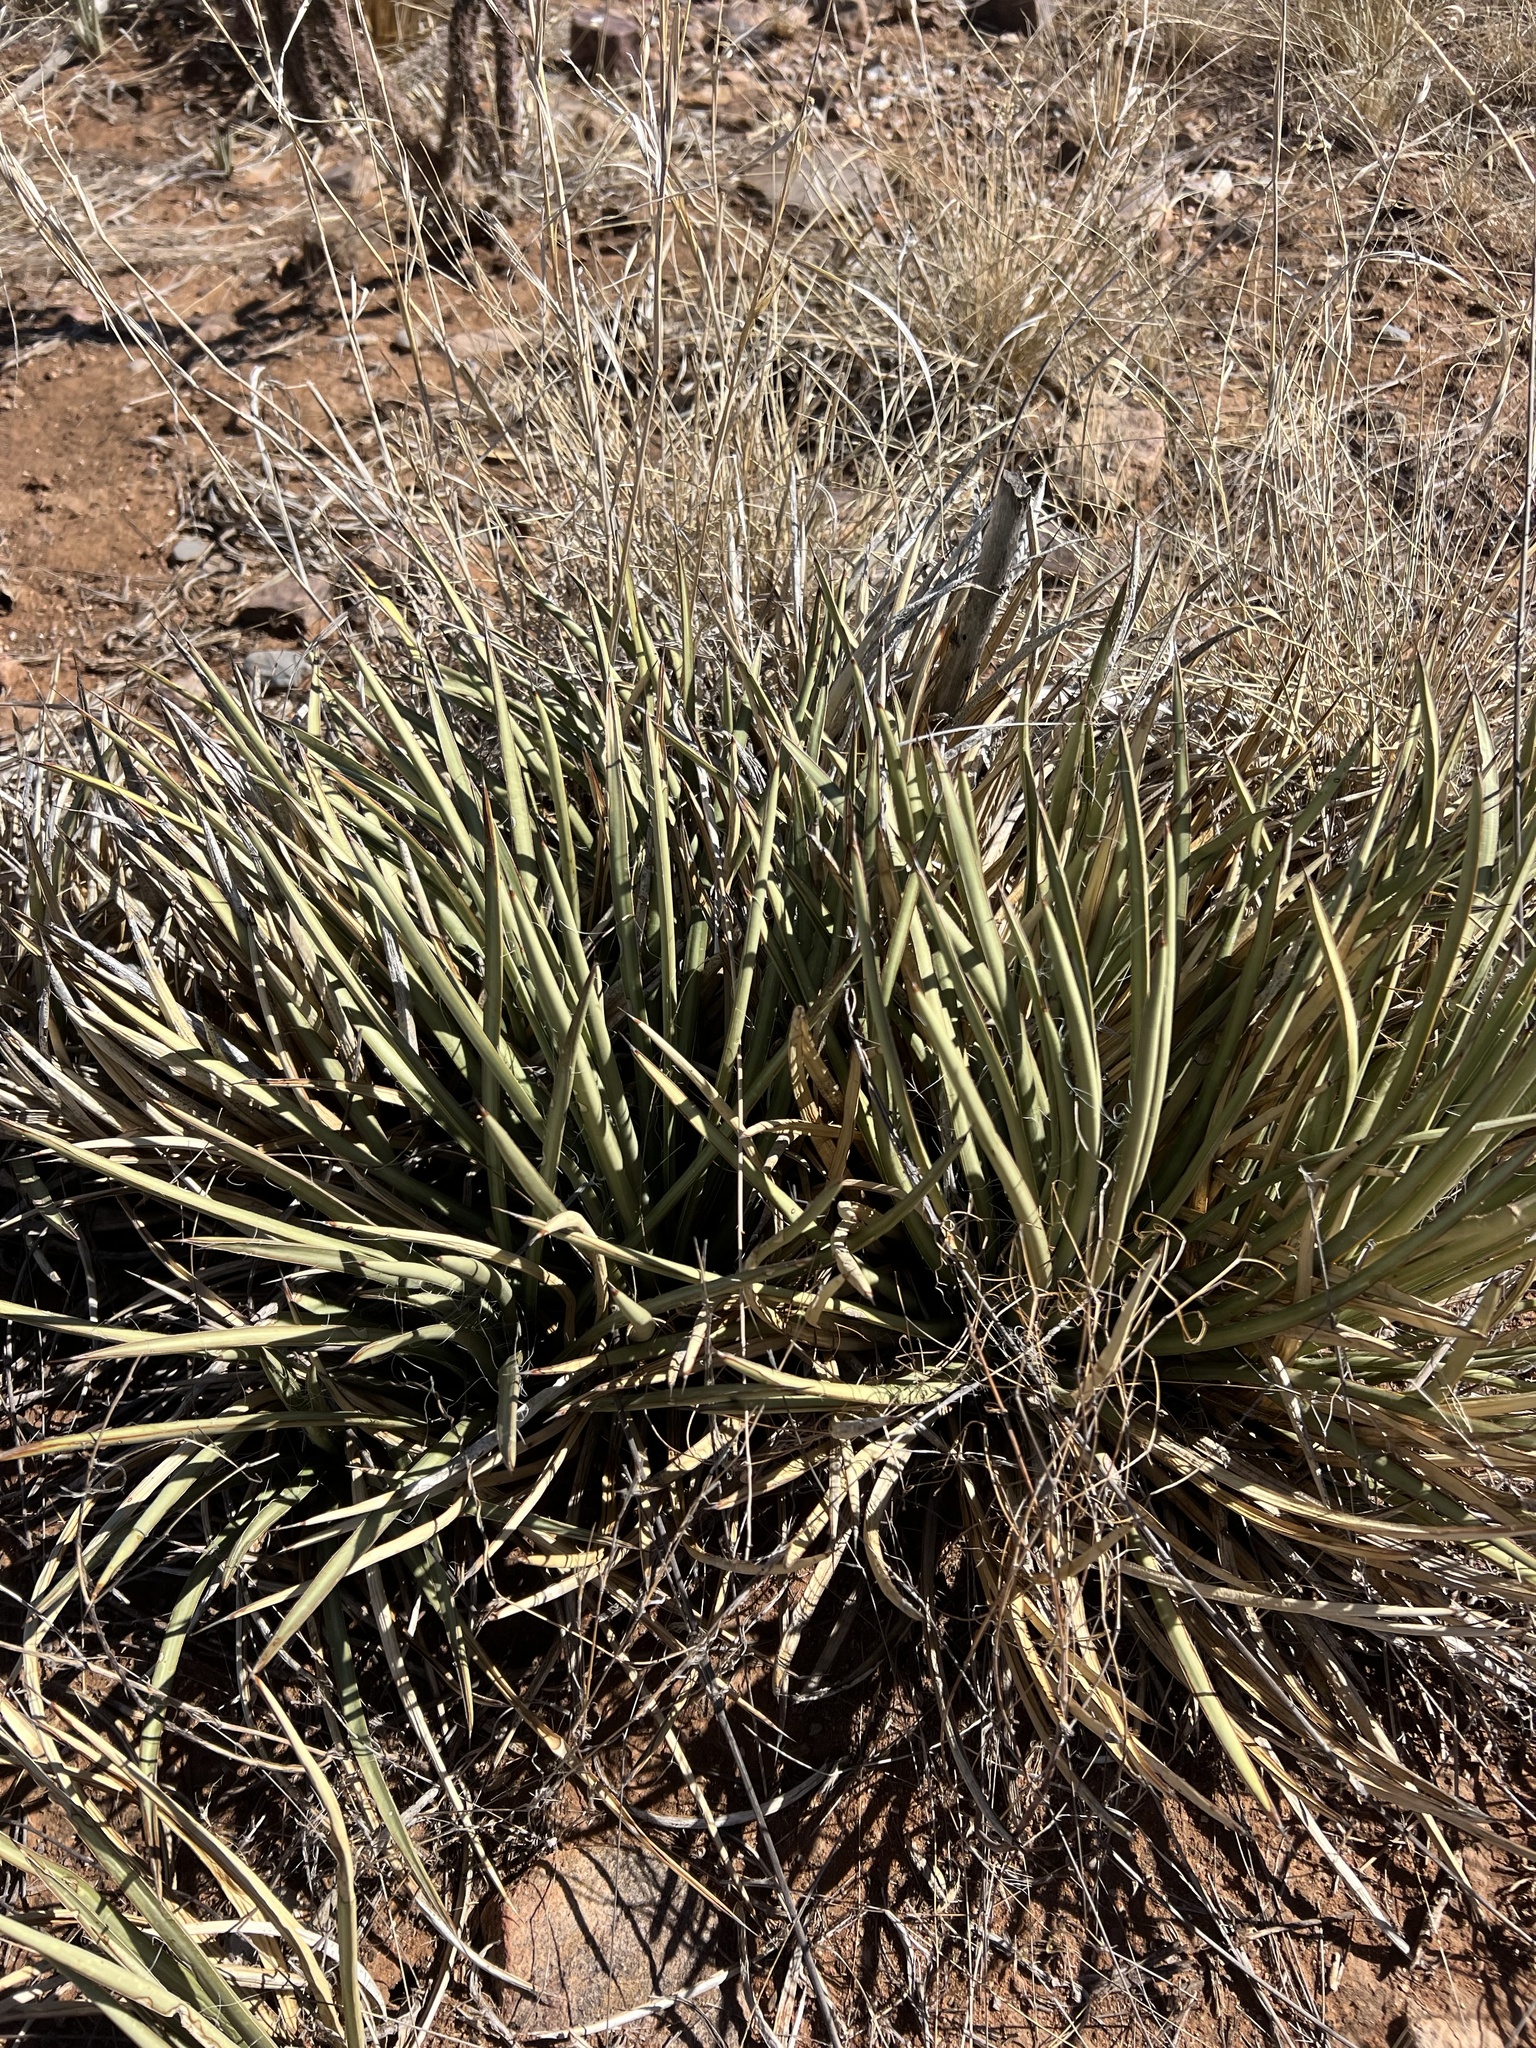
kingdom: Plantae
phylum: Tracheophyta
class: Liliopsida
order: Asparagales
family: Asparagaceae
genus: Agave
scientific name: Agave schottii
